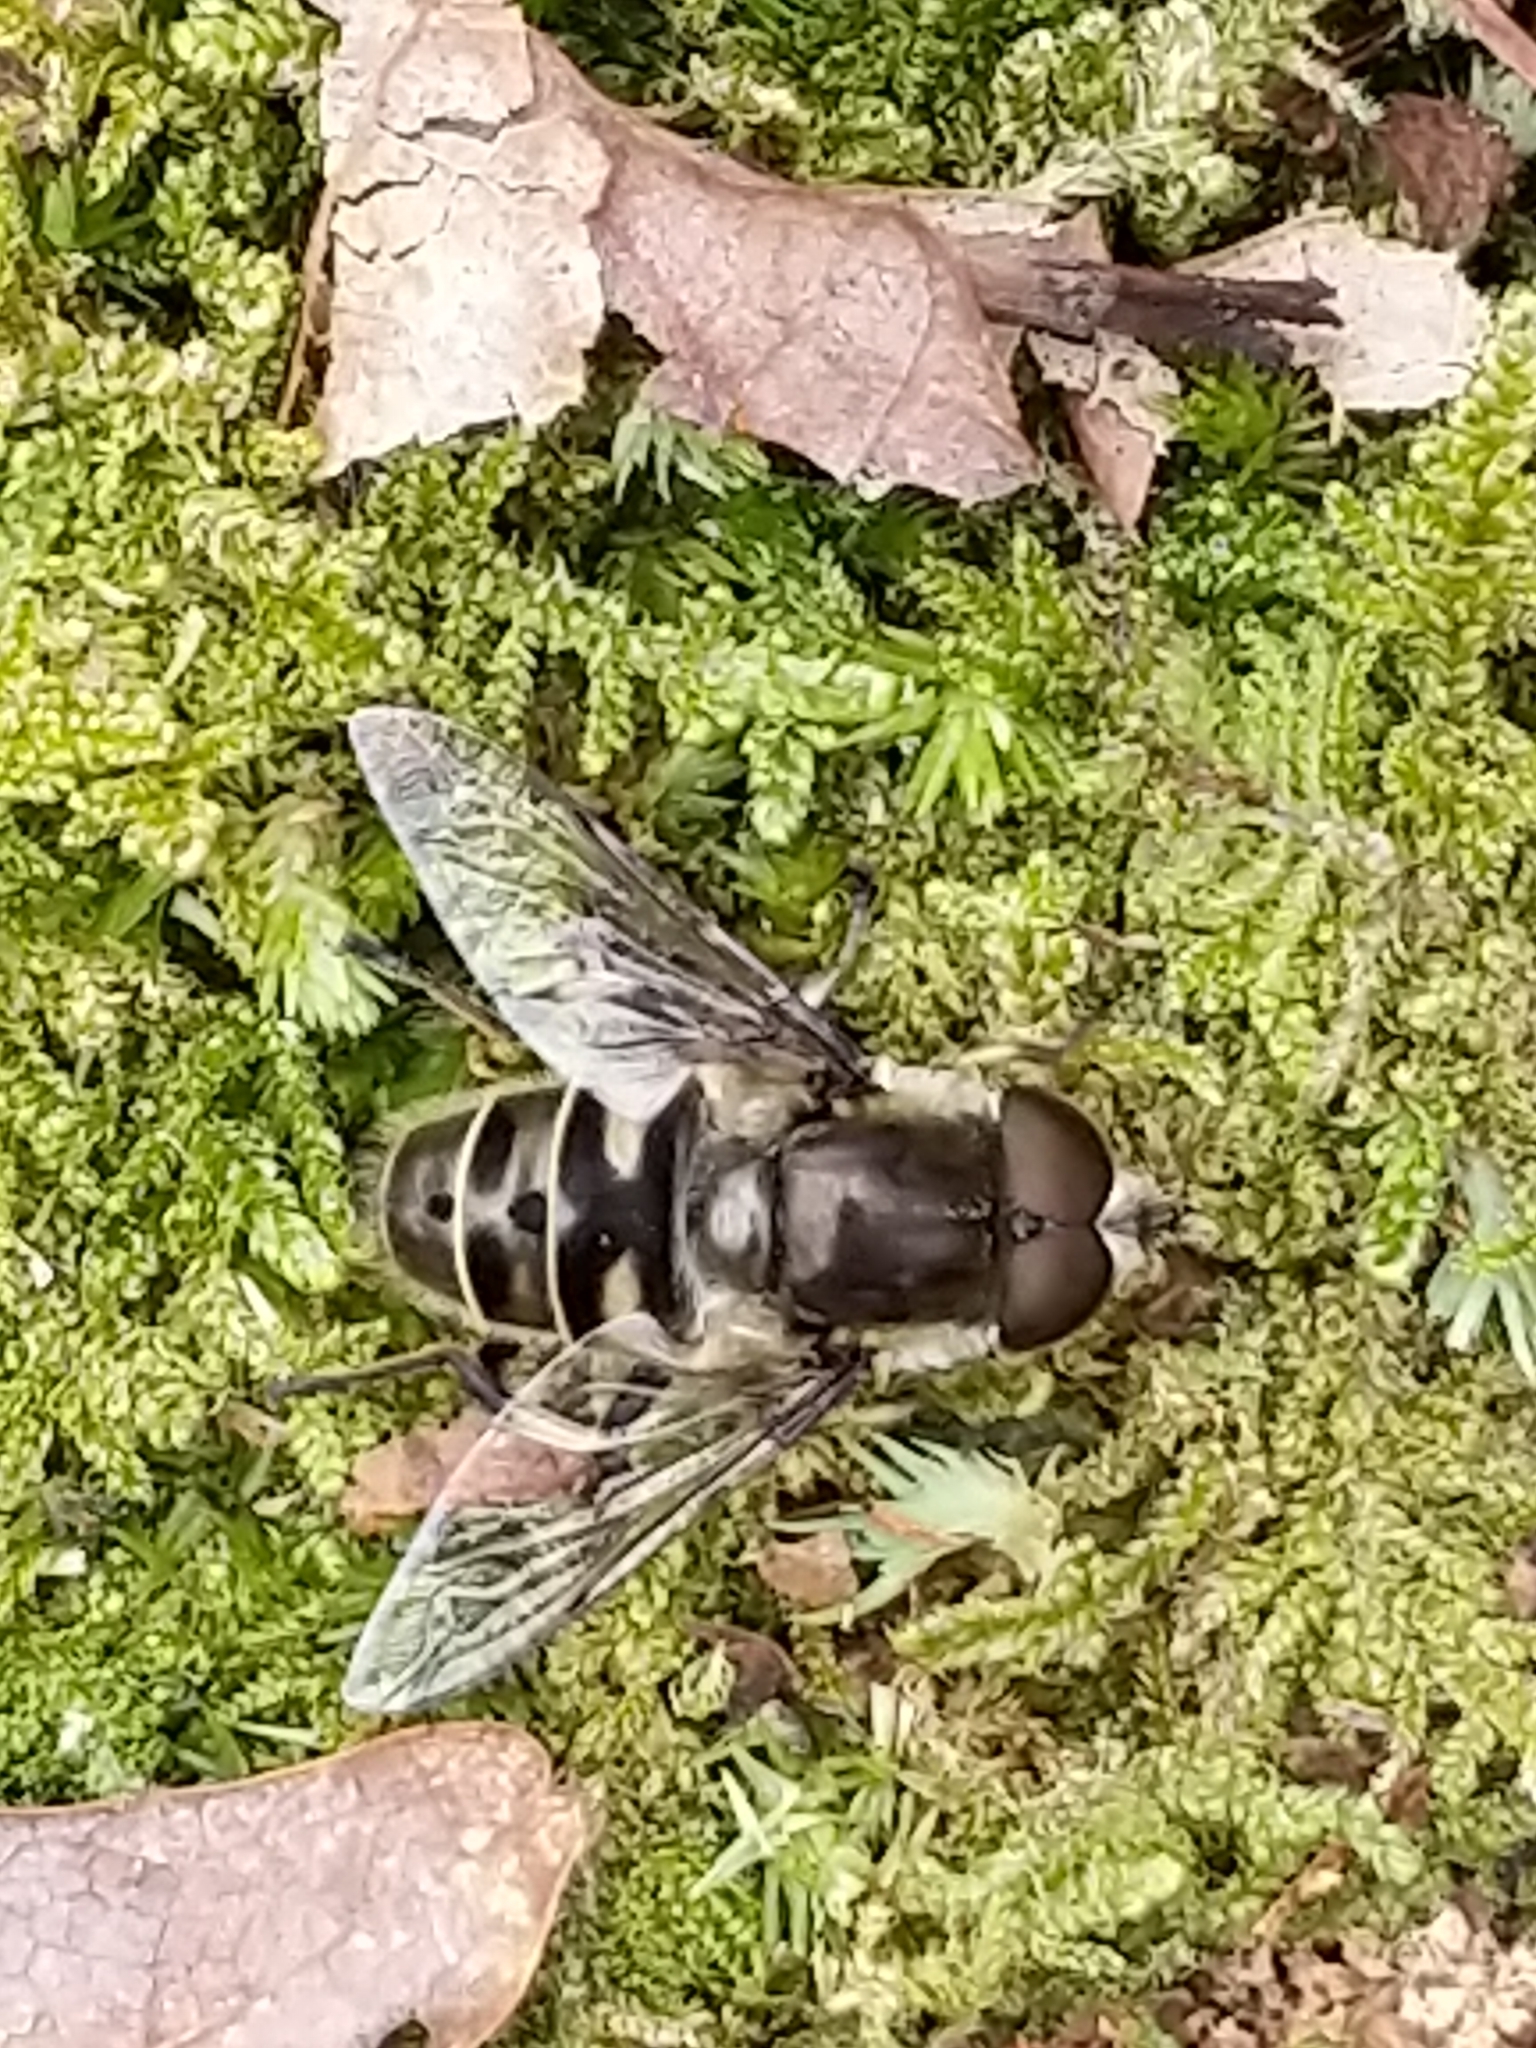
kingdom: Animalia
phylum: Arthropoda
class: Insecta
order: Diptera
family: Syrphidae
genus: Eristalis
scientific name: Eristalis dimidiata
